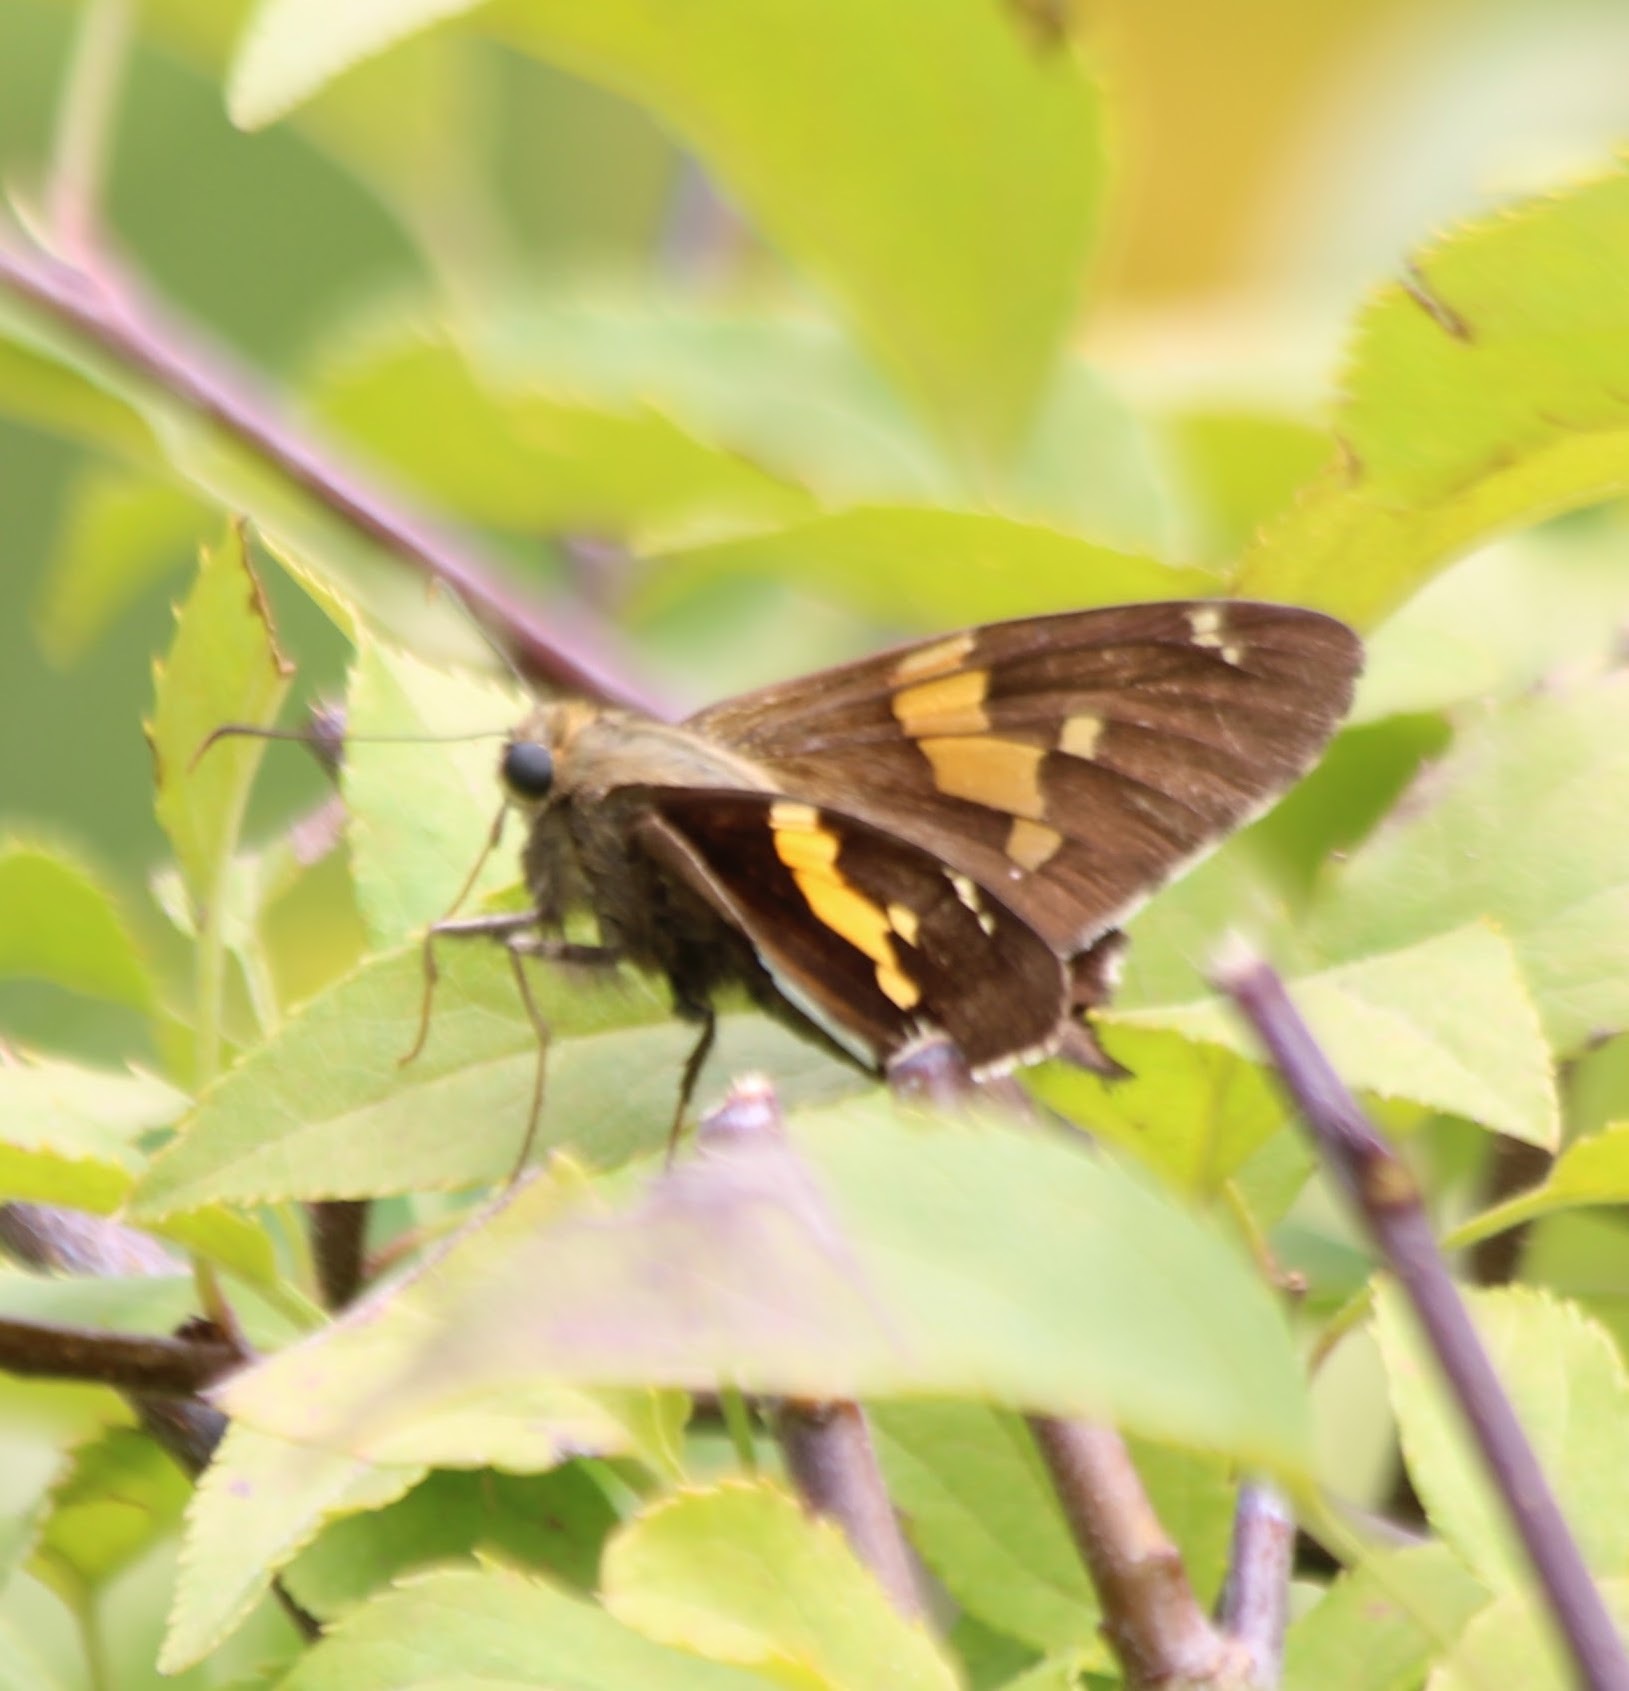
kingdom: Animalia
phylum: Arthropoda
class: Insecta
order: Lepidoptera
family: Hesperiidae
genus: Epargyreus
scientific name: Epargyreus clarus
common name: Silver-spotted skipper
